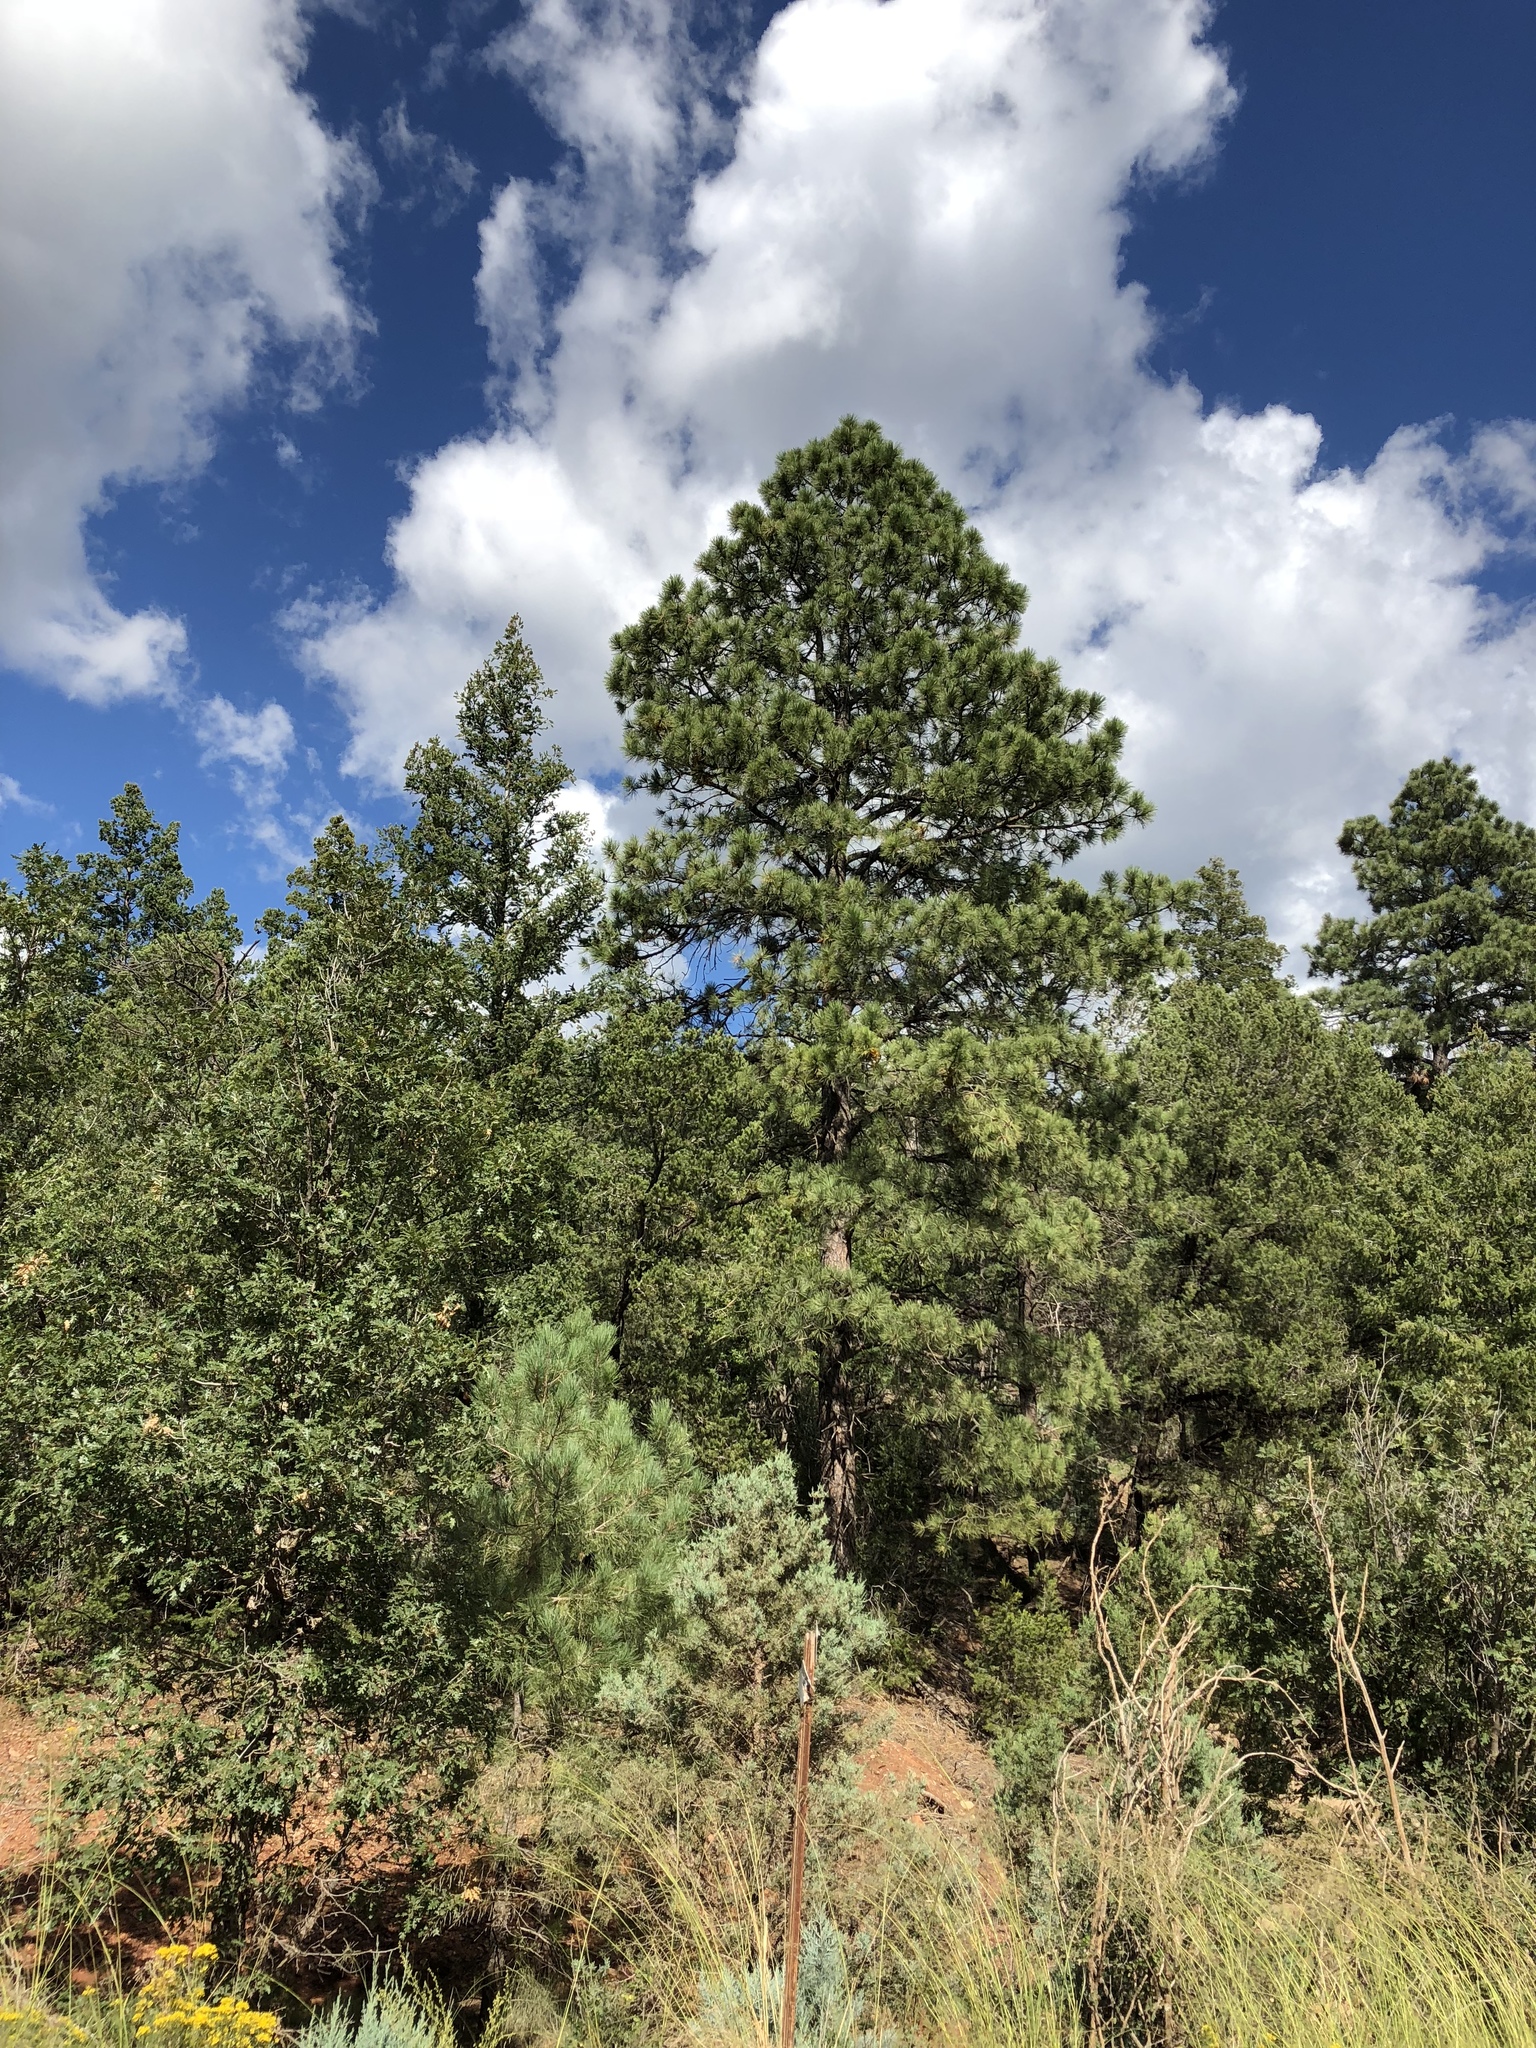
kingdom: Plantae
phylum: Tracheophyta
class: Pinopsida
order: Pinales
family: Pinaceae
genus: Pinus
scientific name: Pinus ponderosa
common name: Western yellow-pine
